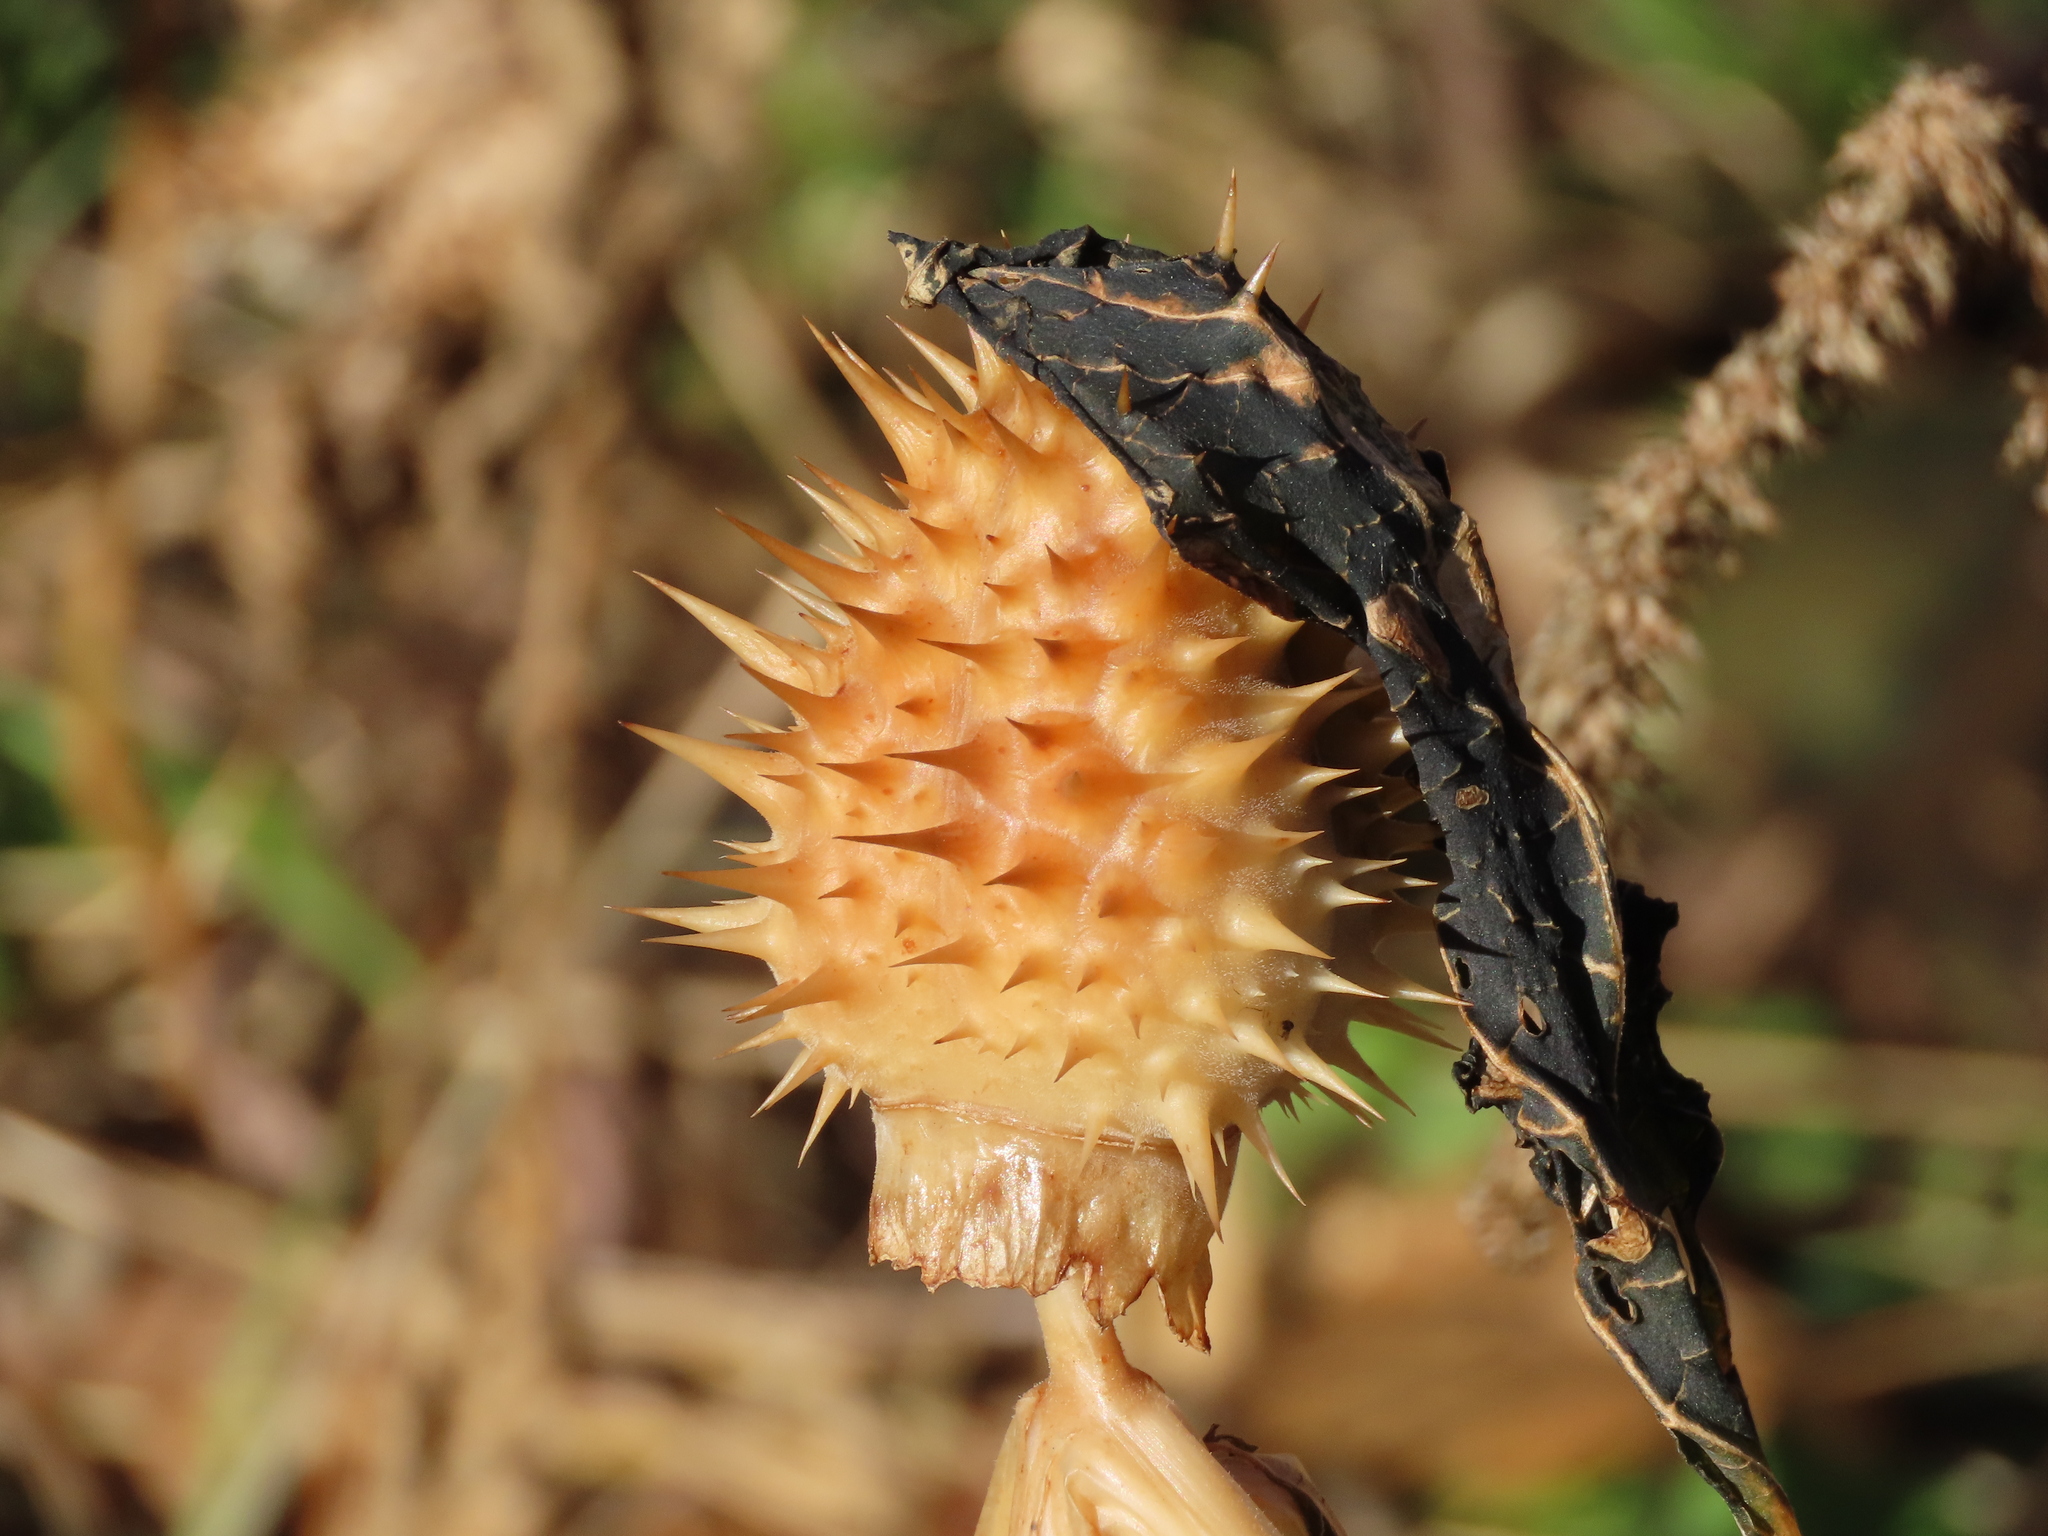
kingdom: Plantae
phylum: Tracheophyta
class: Magnoliopsida
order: Solanales
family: Solanaceae
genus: Datura
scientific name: Datura stramonium
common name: Thorn-apple
